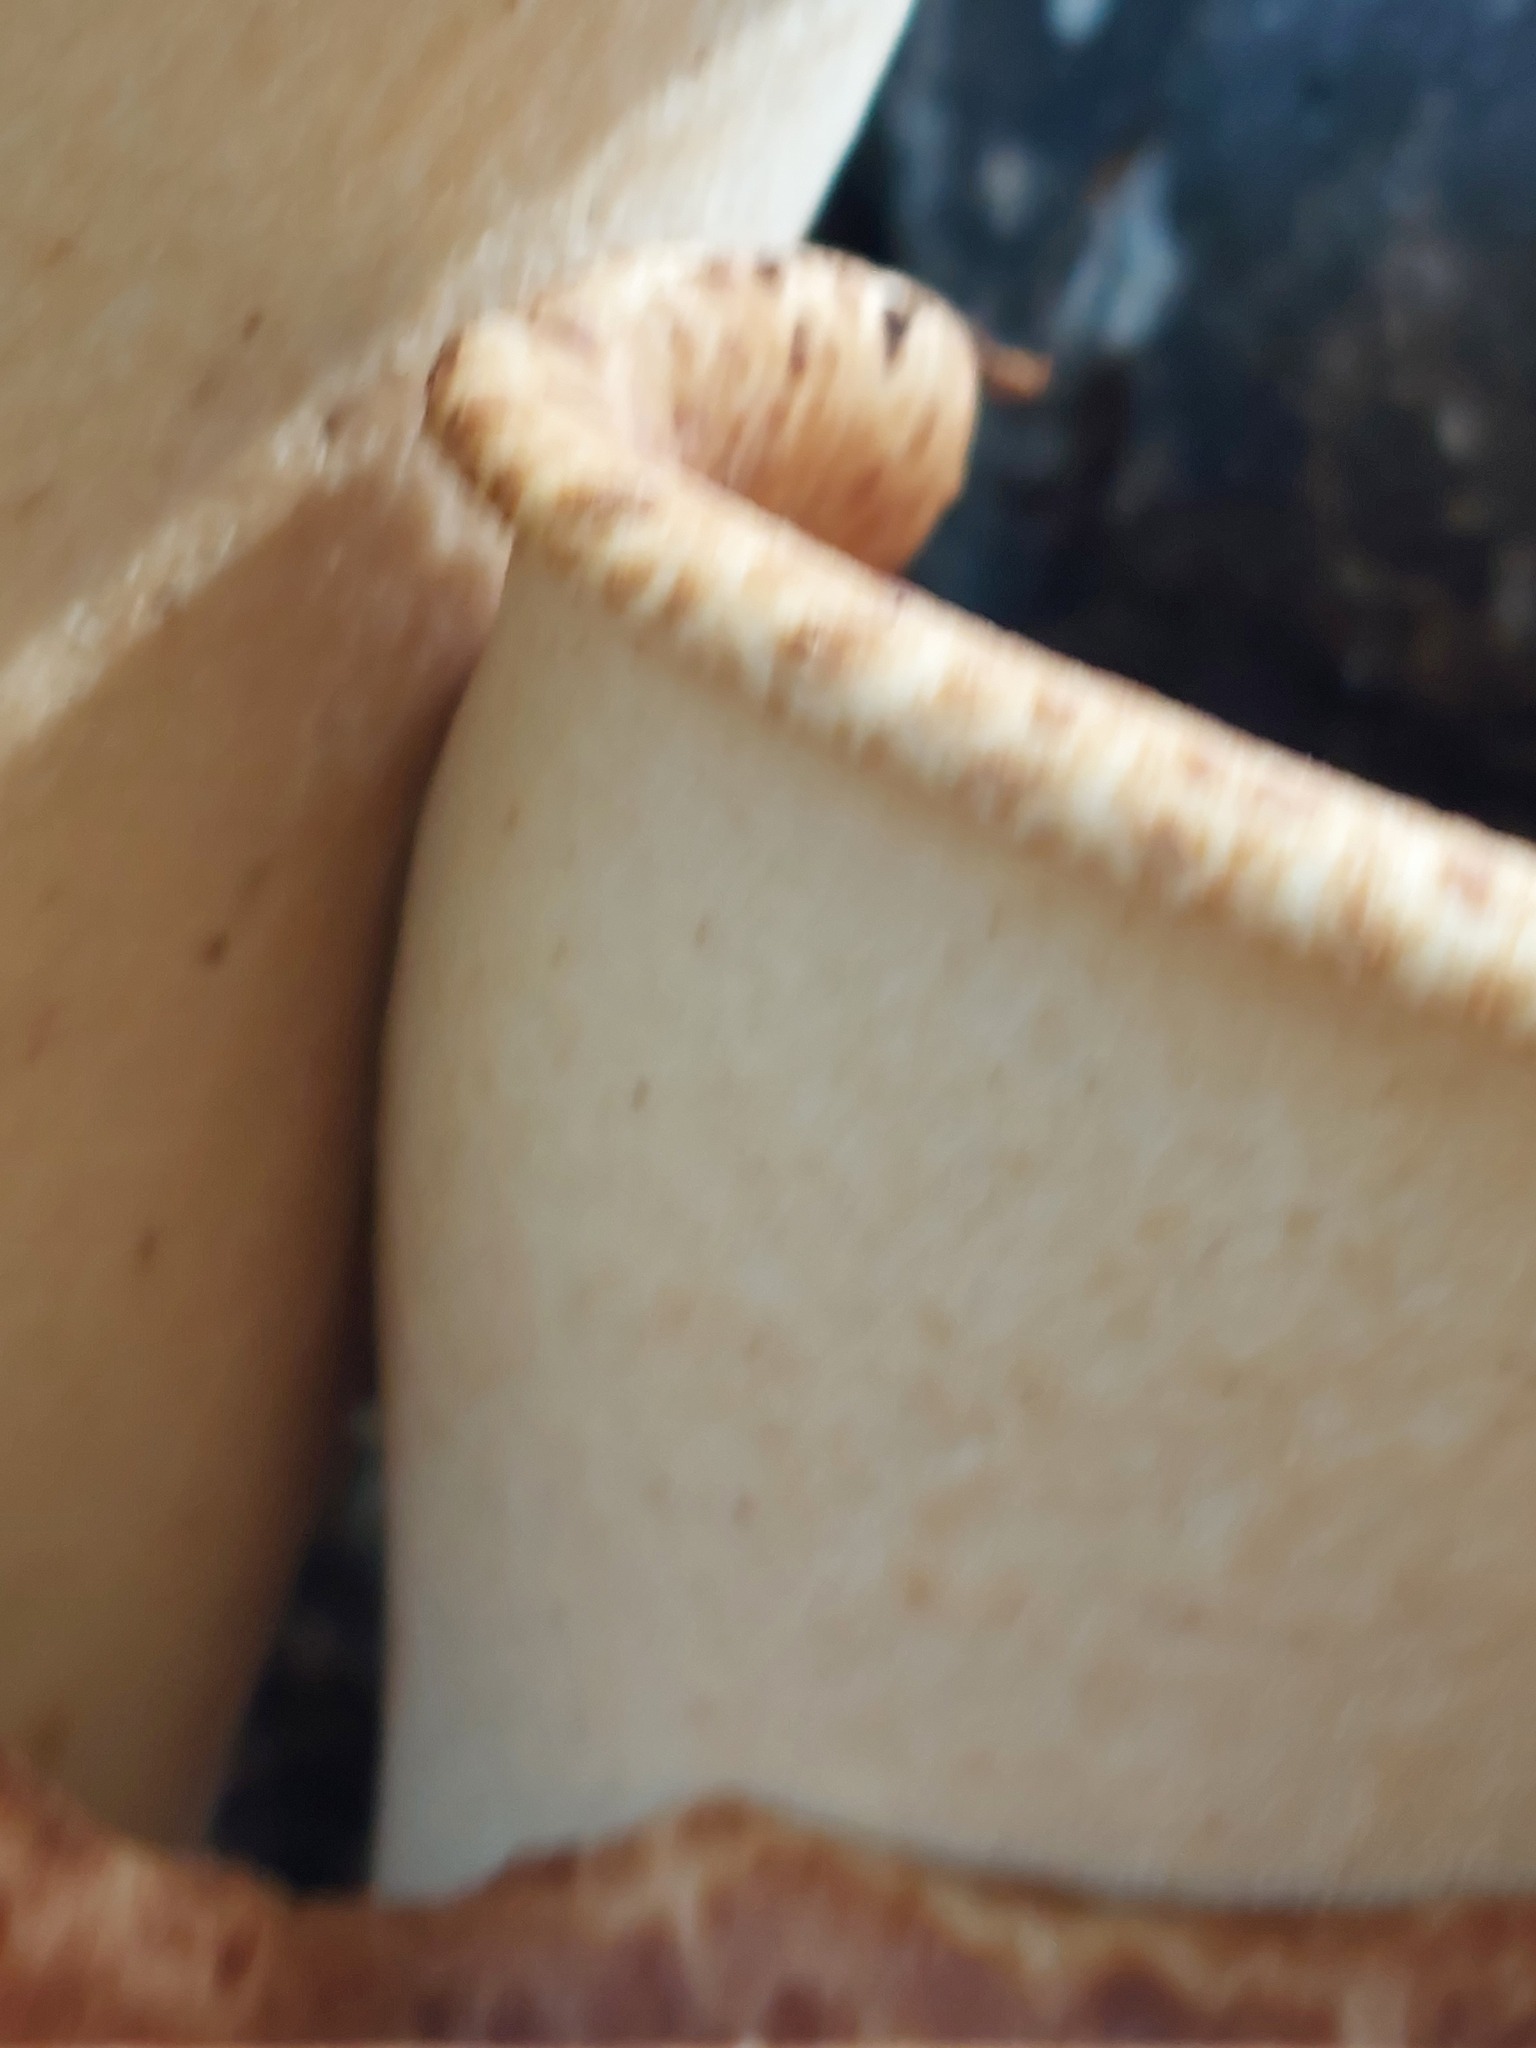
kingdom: Fungi
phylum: Basidiomycota
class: Agaricomycetes
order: Polyporales
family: Polyporaceae
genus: Cerioporus
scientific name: Cerioporus squamosus
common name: Dryad's saddle
